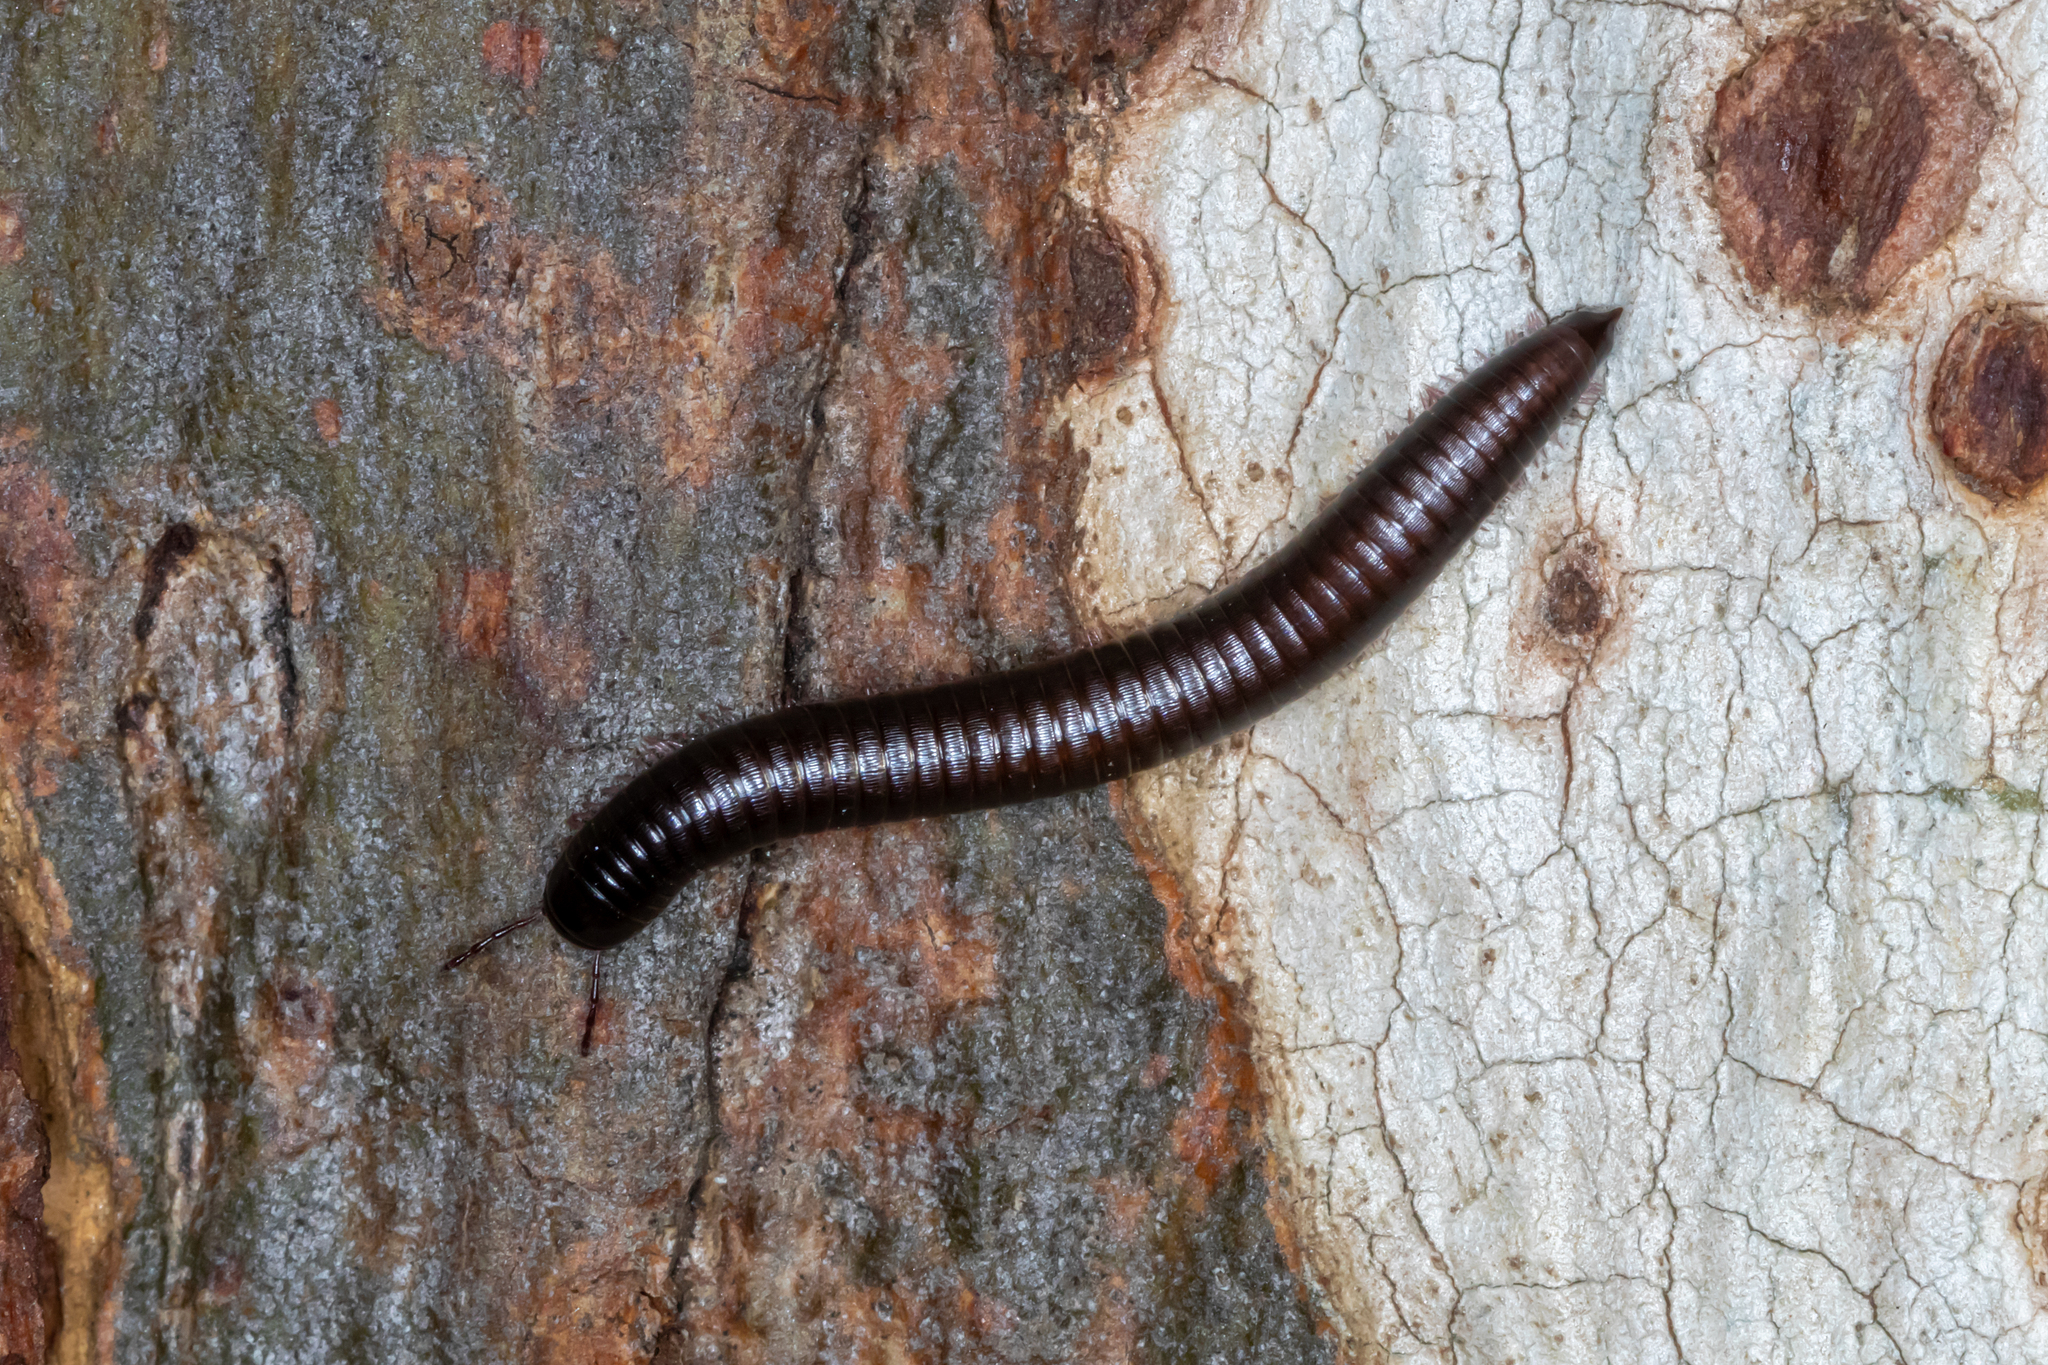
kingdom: Animalia
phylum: Arthropoda
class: Diplopoda
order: Julida
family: Julidae
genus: Ommatoiulus
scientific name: Ommatoiulus moreleti
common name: Portuguese millipede
